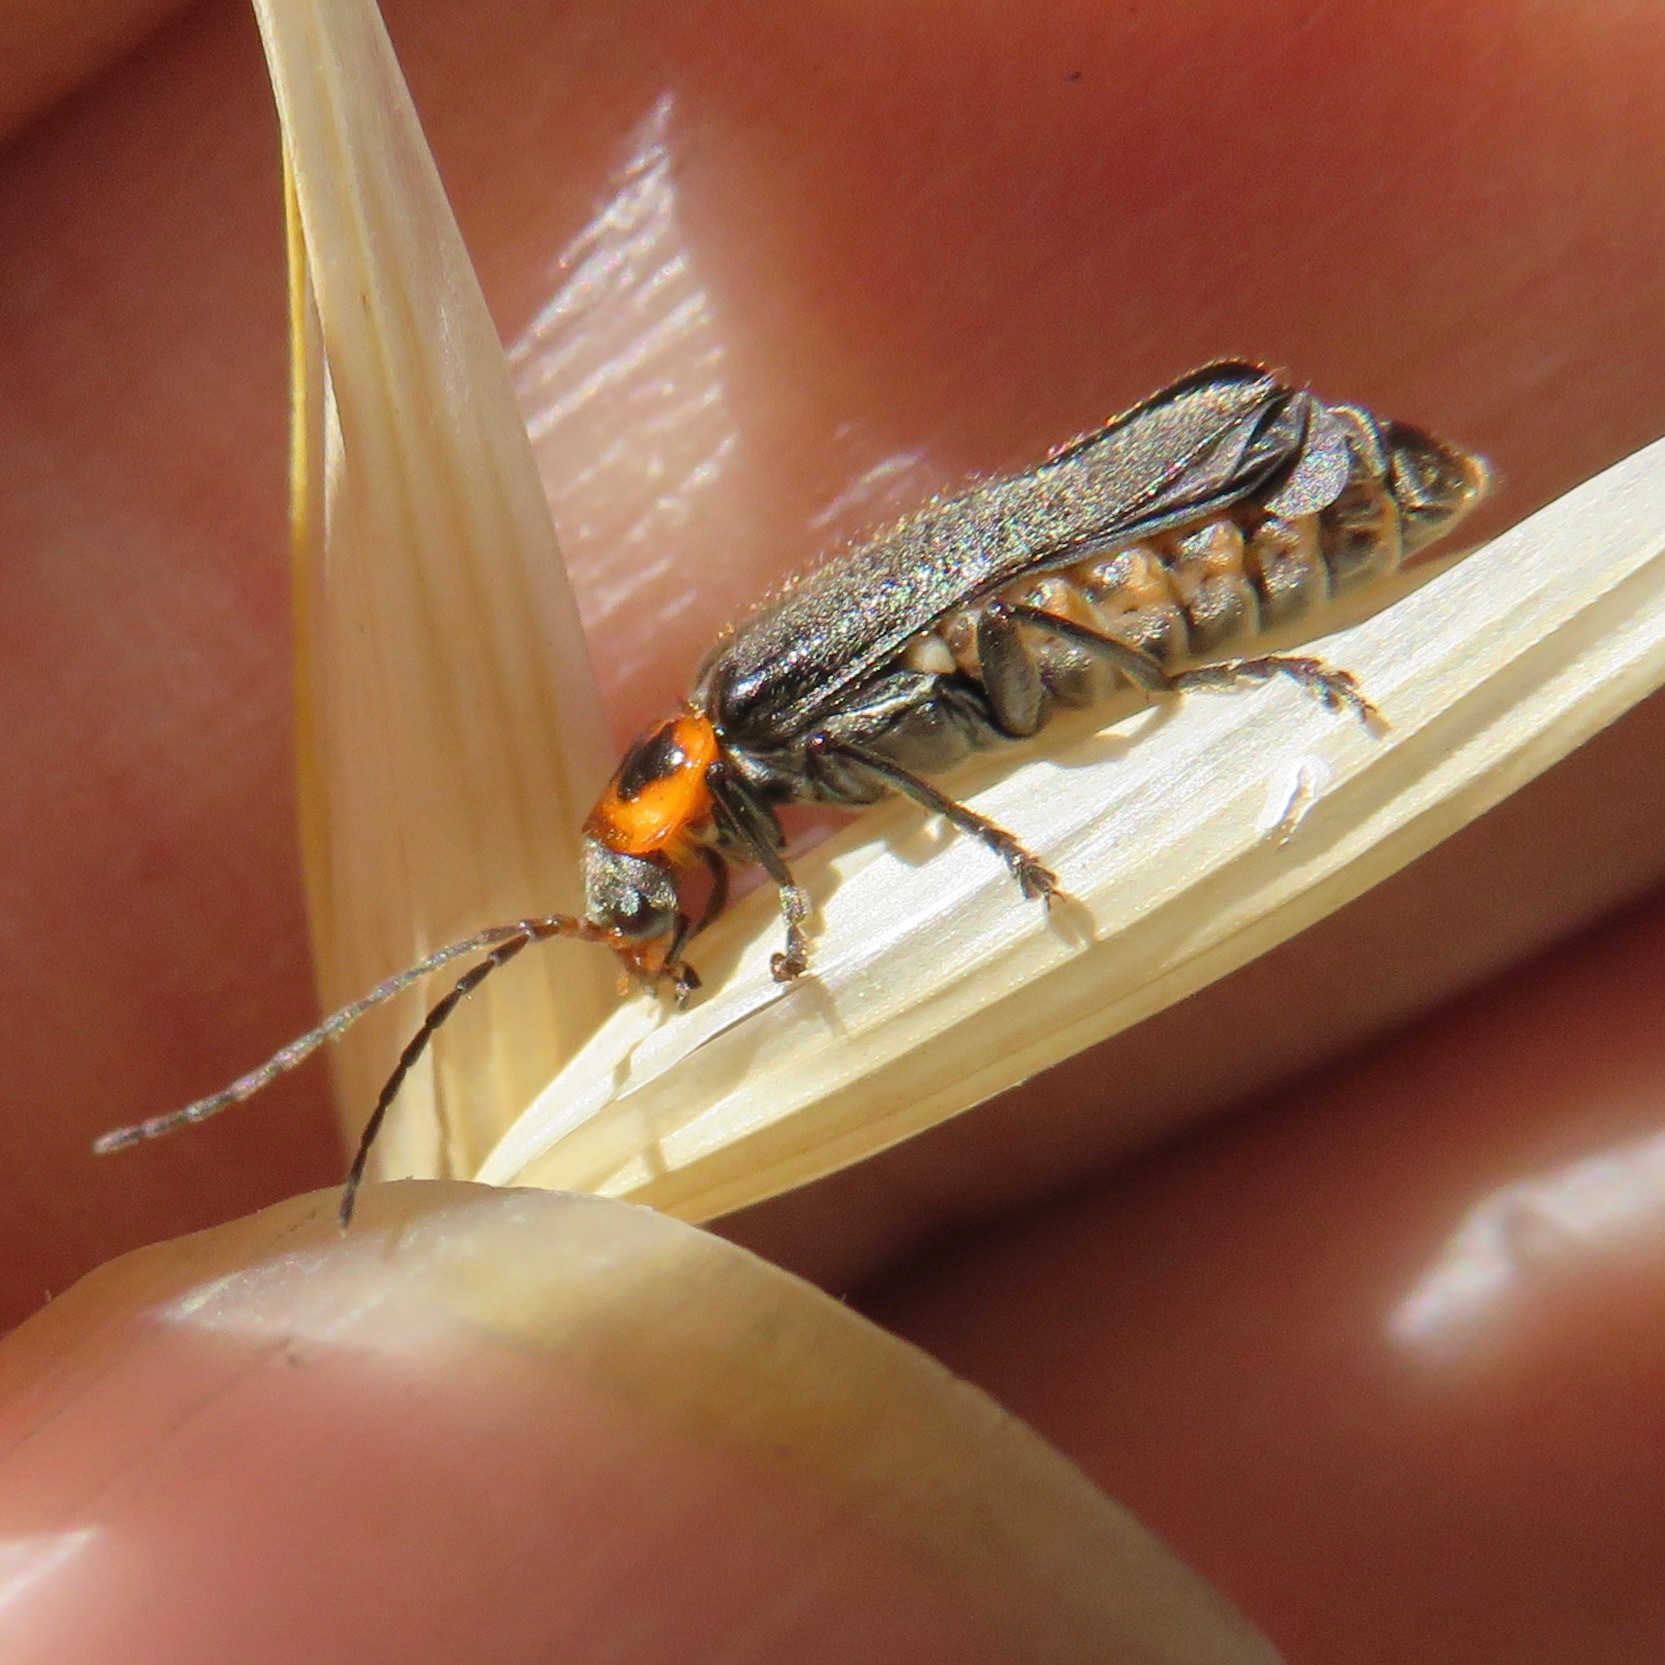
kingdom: Animalia
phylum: Arthropoda
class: Insecta
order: Coleoptera
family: Cantharidae
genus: Cyrtomoptera
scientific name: Cyrtomoptera divisa
